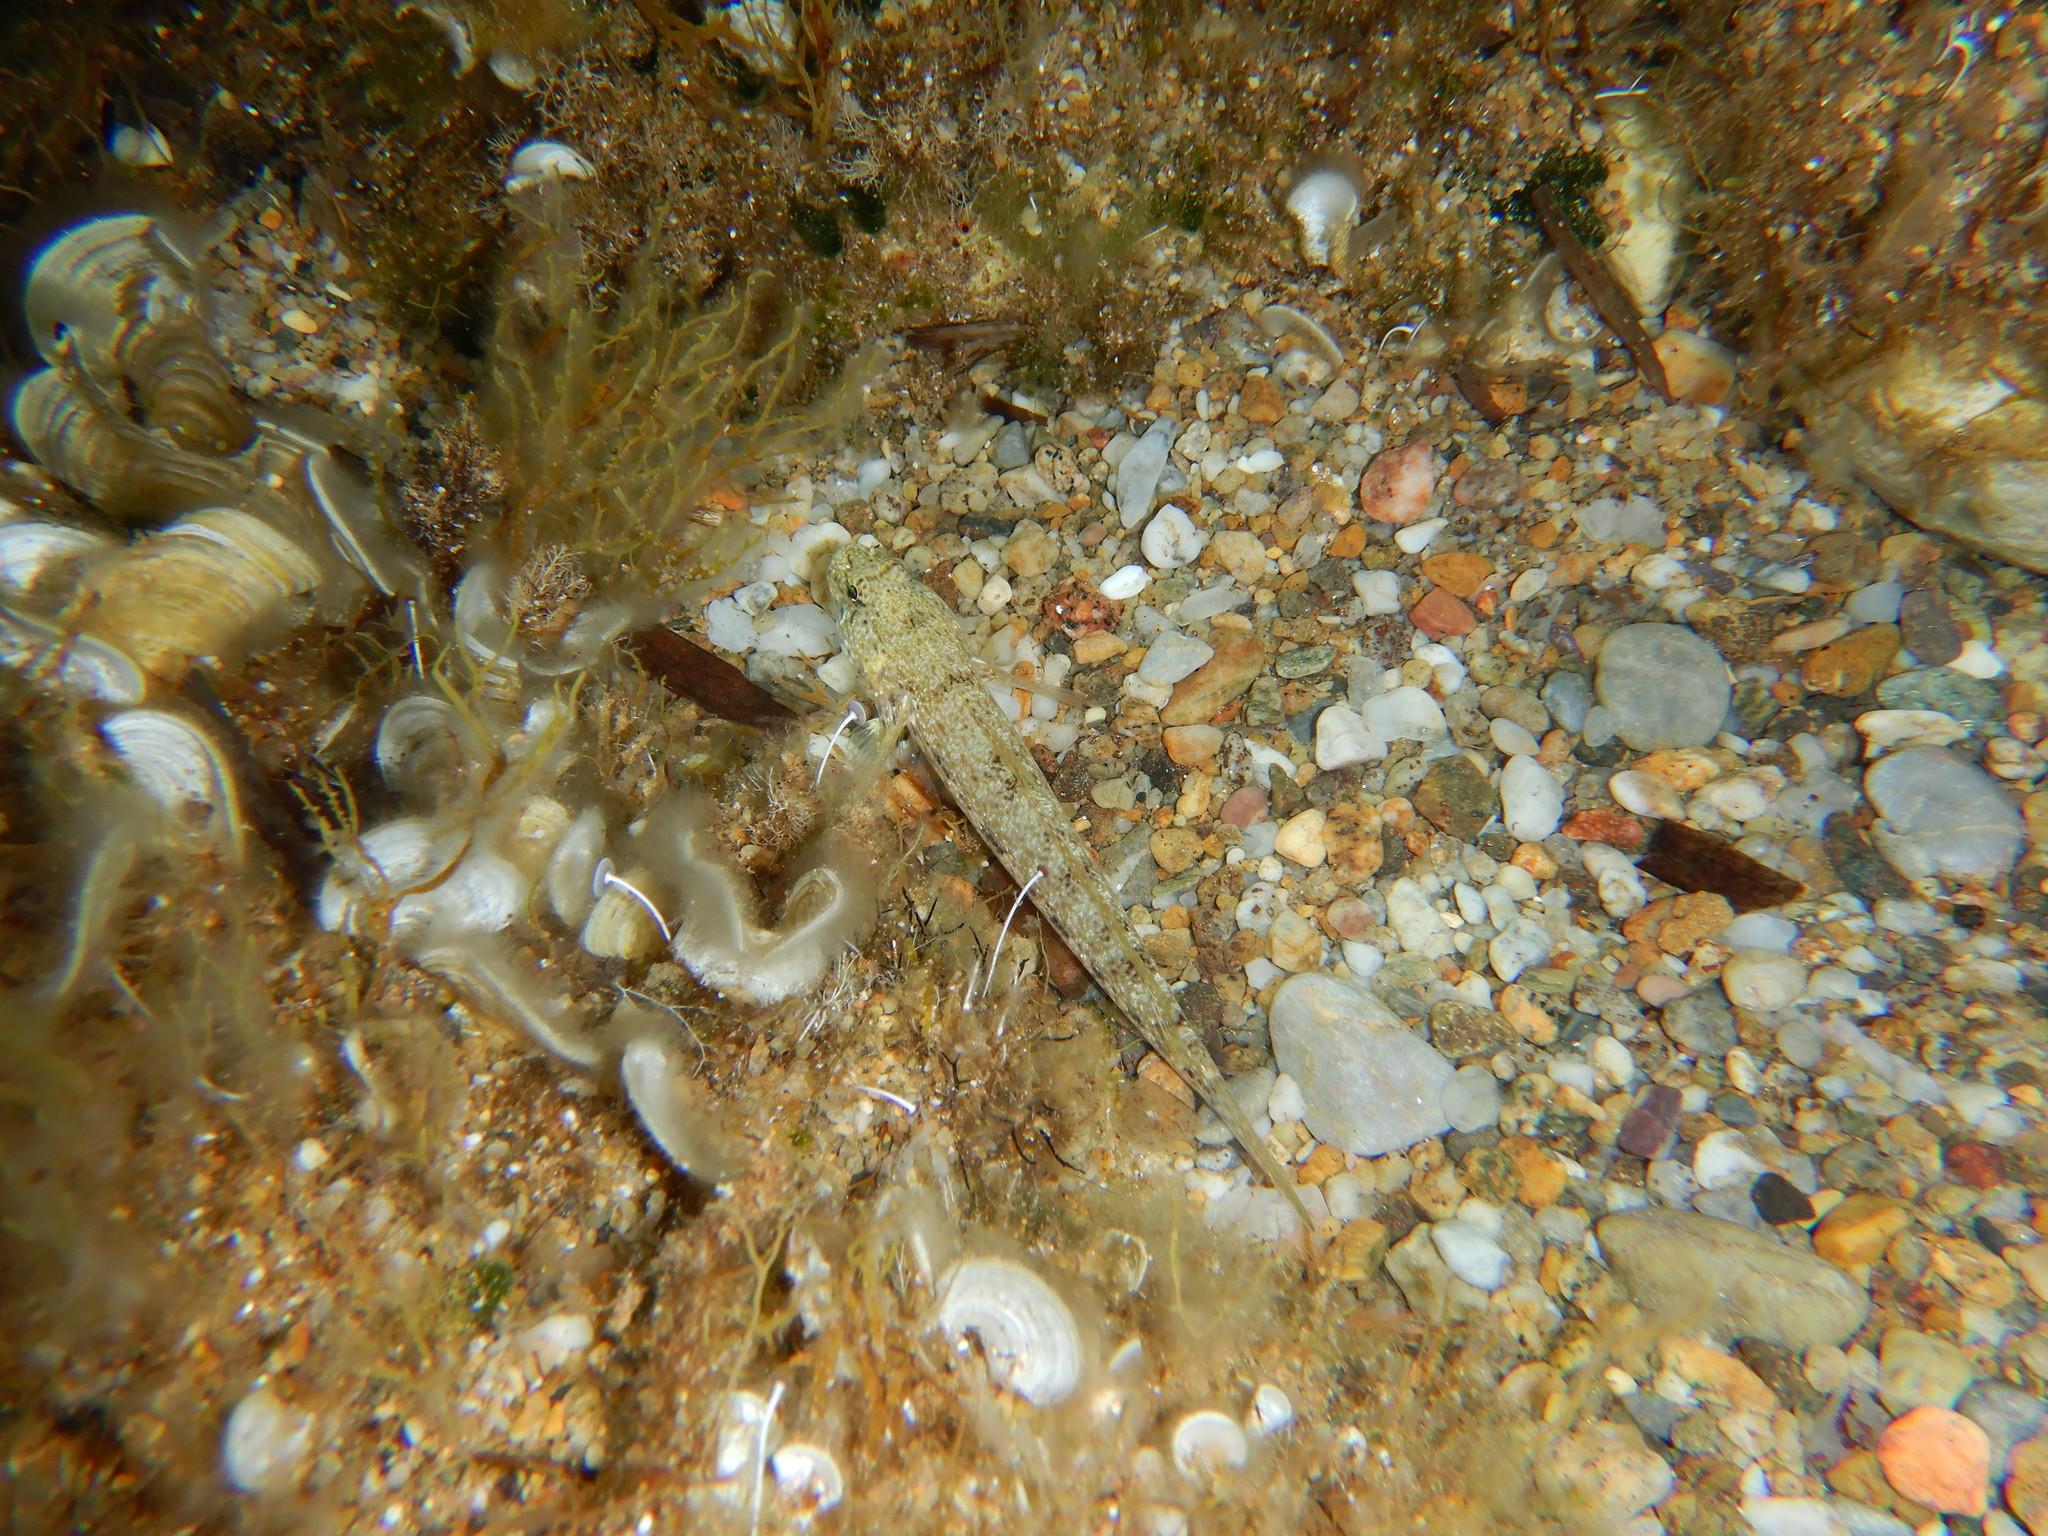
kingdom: Animalia
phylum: Chordata
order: Perciformes
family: Gobiidae
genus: Gobius
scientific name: Gobius incognitus
